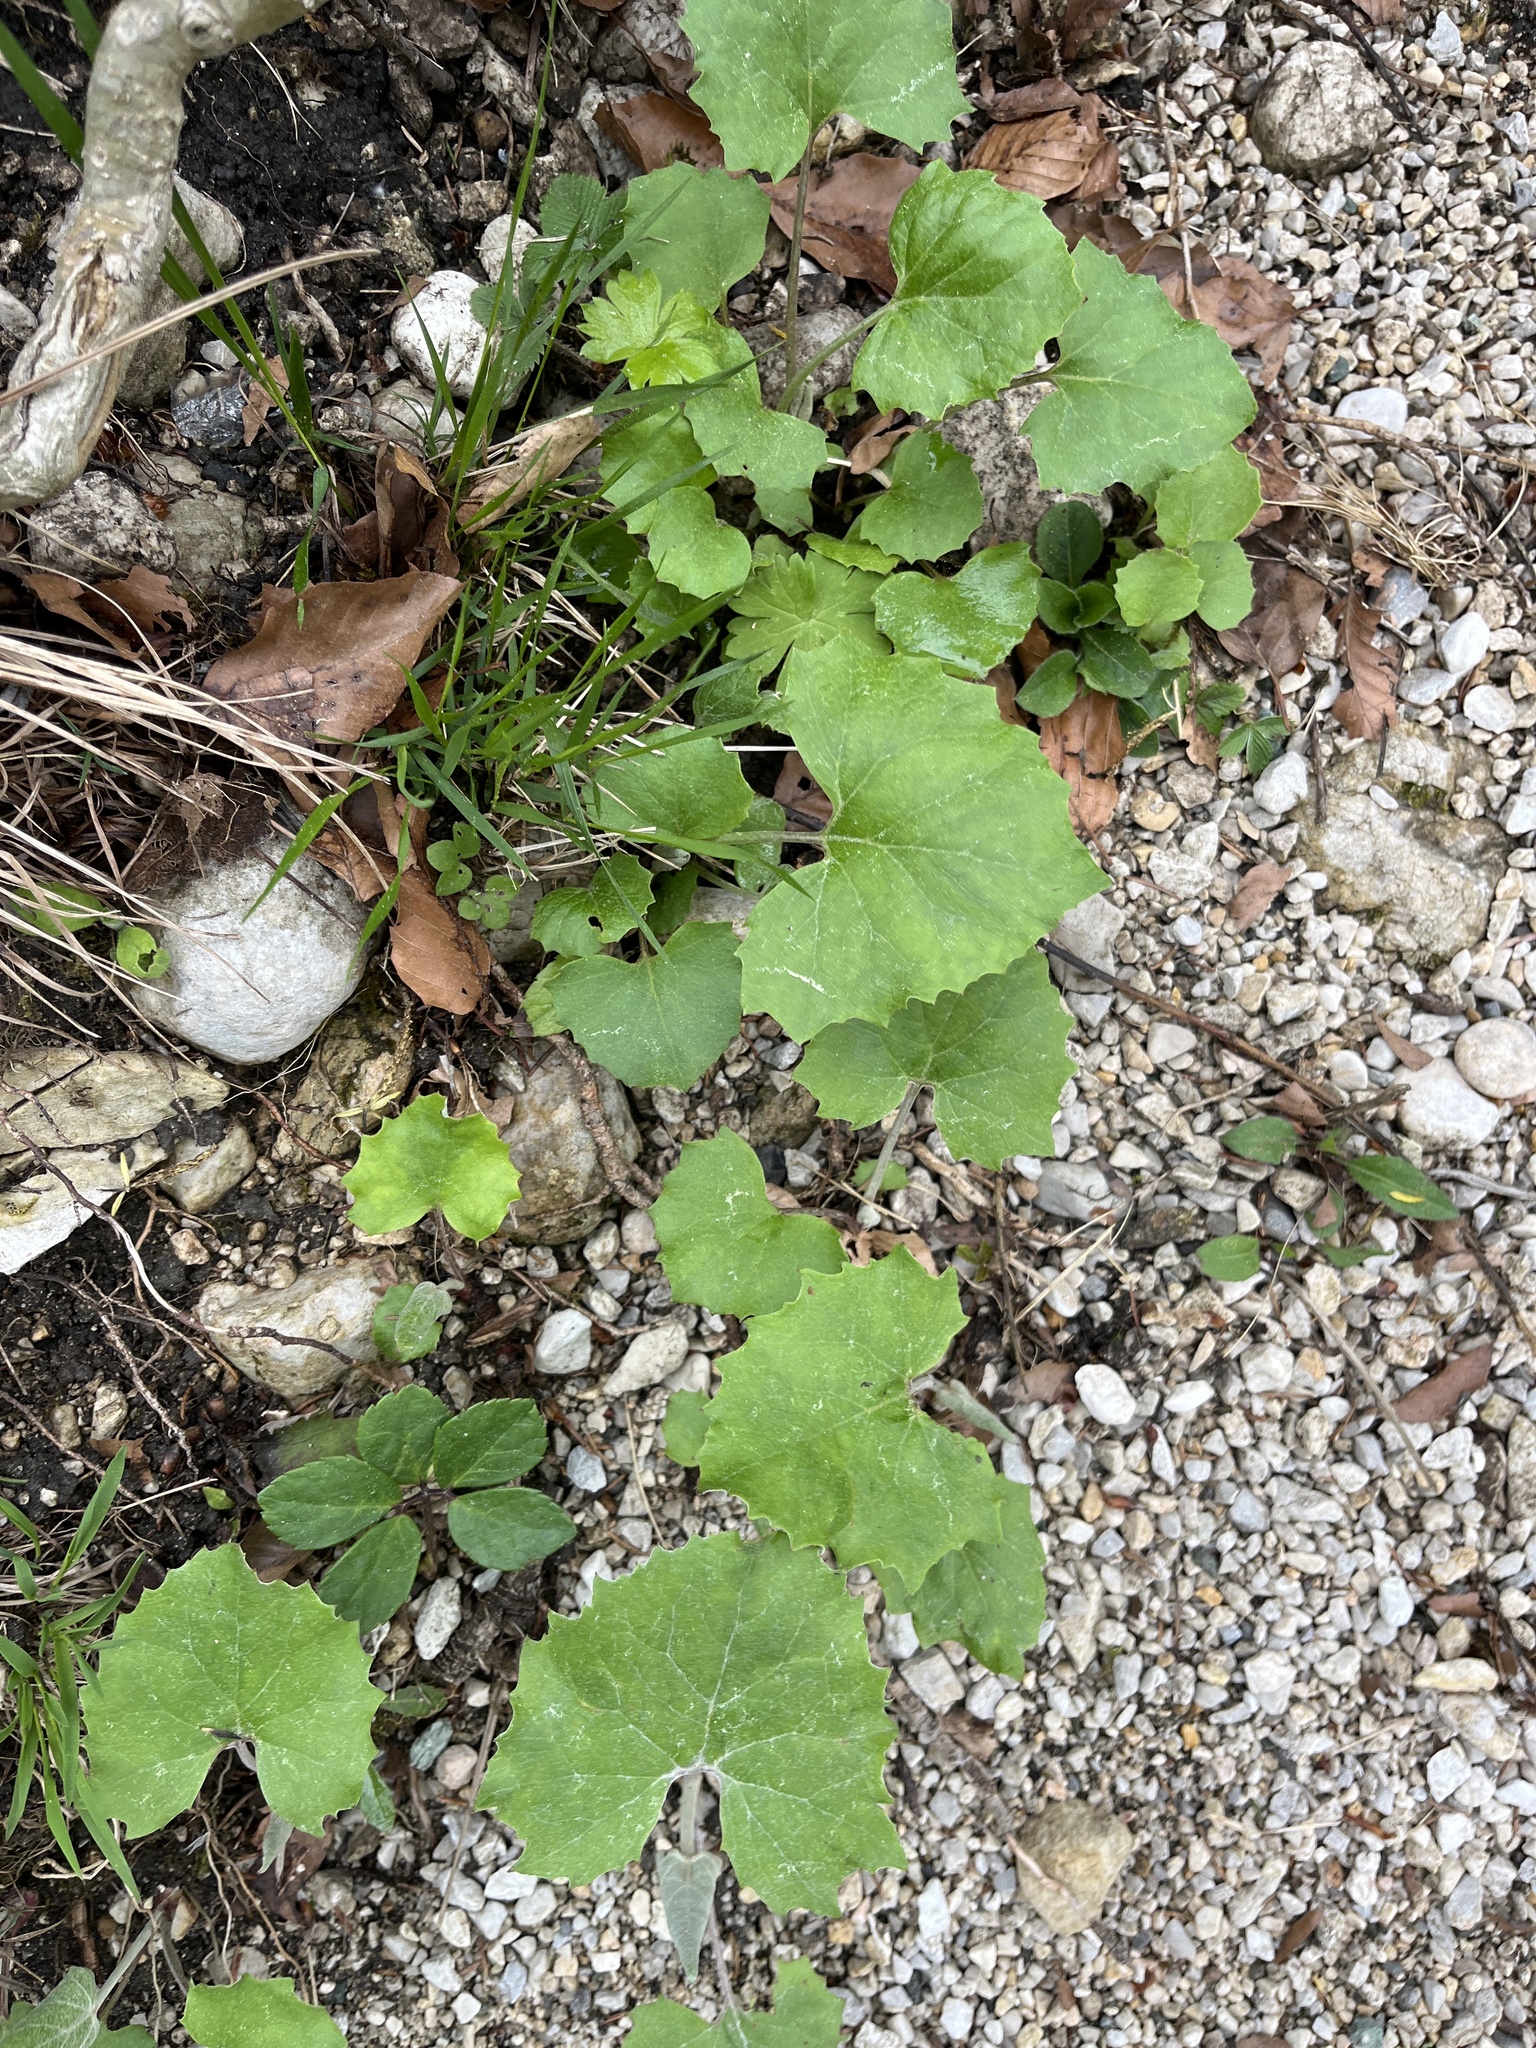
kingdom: Plantae
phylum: Tracheophyta
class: Magnoliopsida
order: Brassicales
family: Brassicaceae
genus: Alliaria
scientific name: Alliaria petiolata
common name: Garlic mustard
